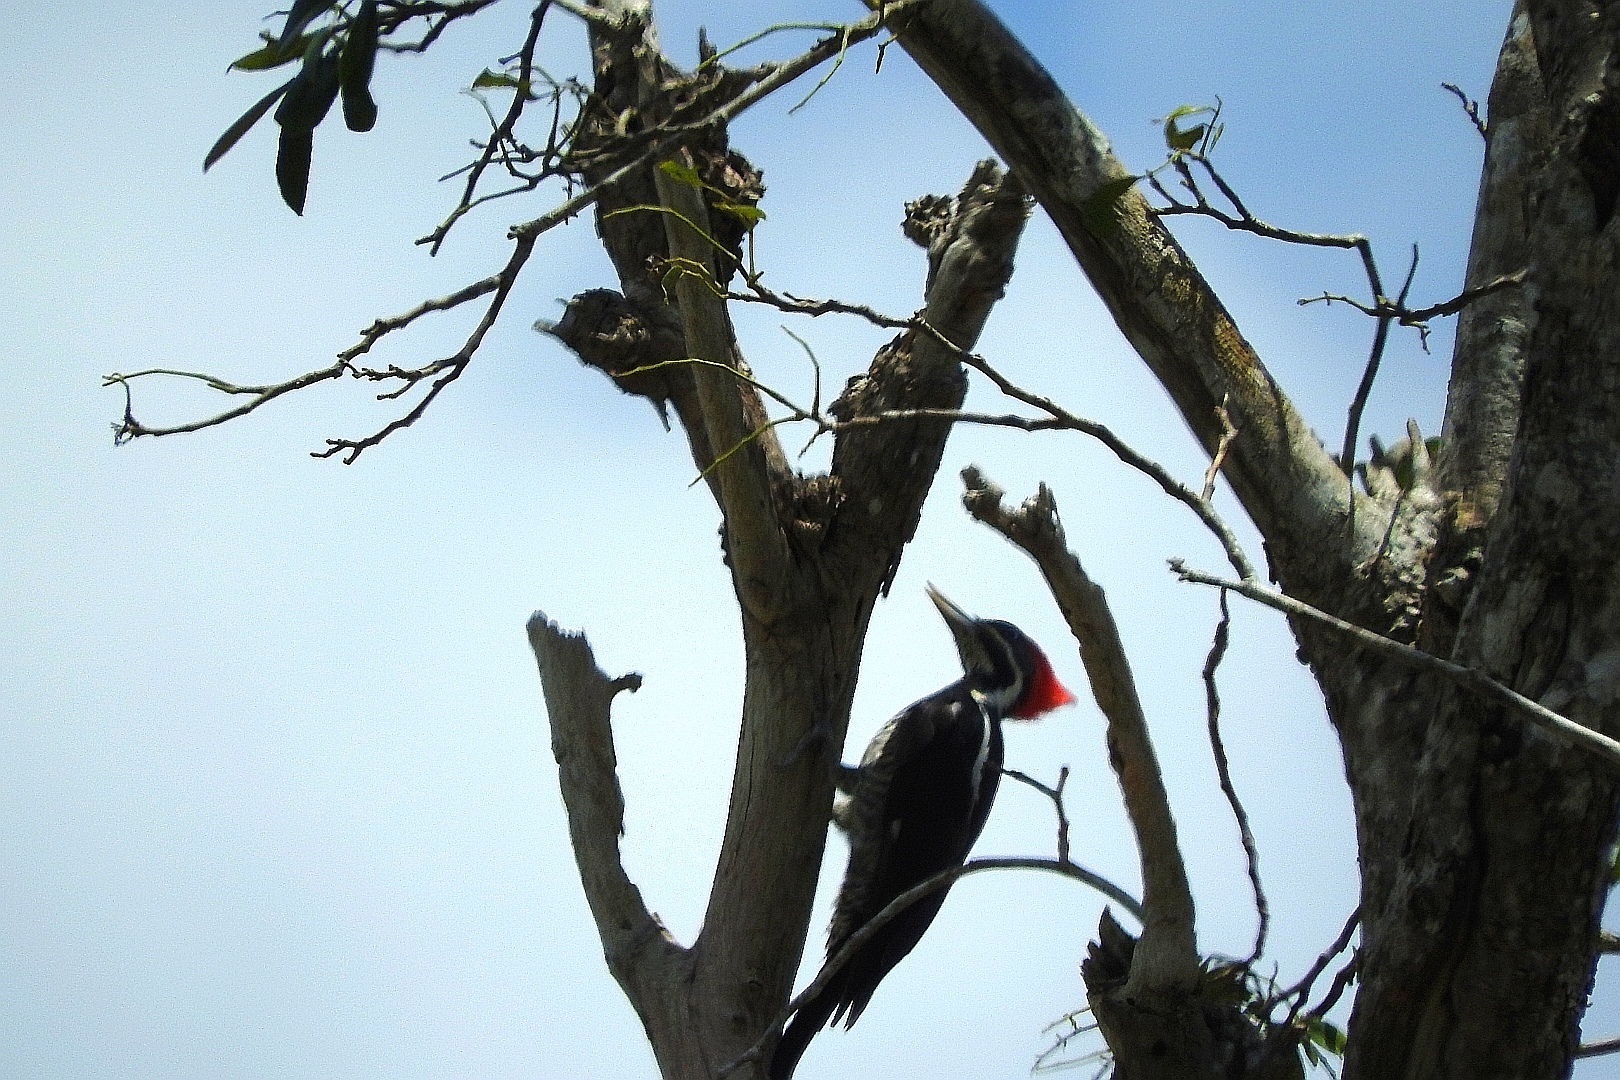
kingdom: Animalia
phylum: Chordata
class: Aves
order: Piciformes
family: Picidae
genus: Dryocopus
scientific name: Dryocopus lineatus
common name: Lineated woodpecker
